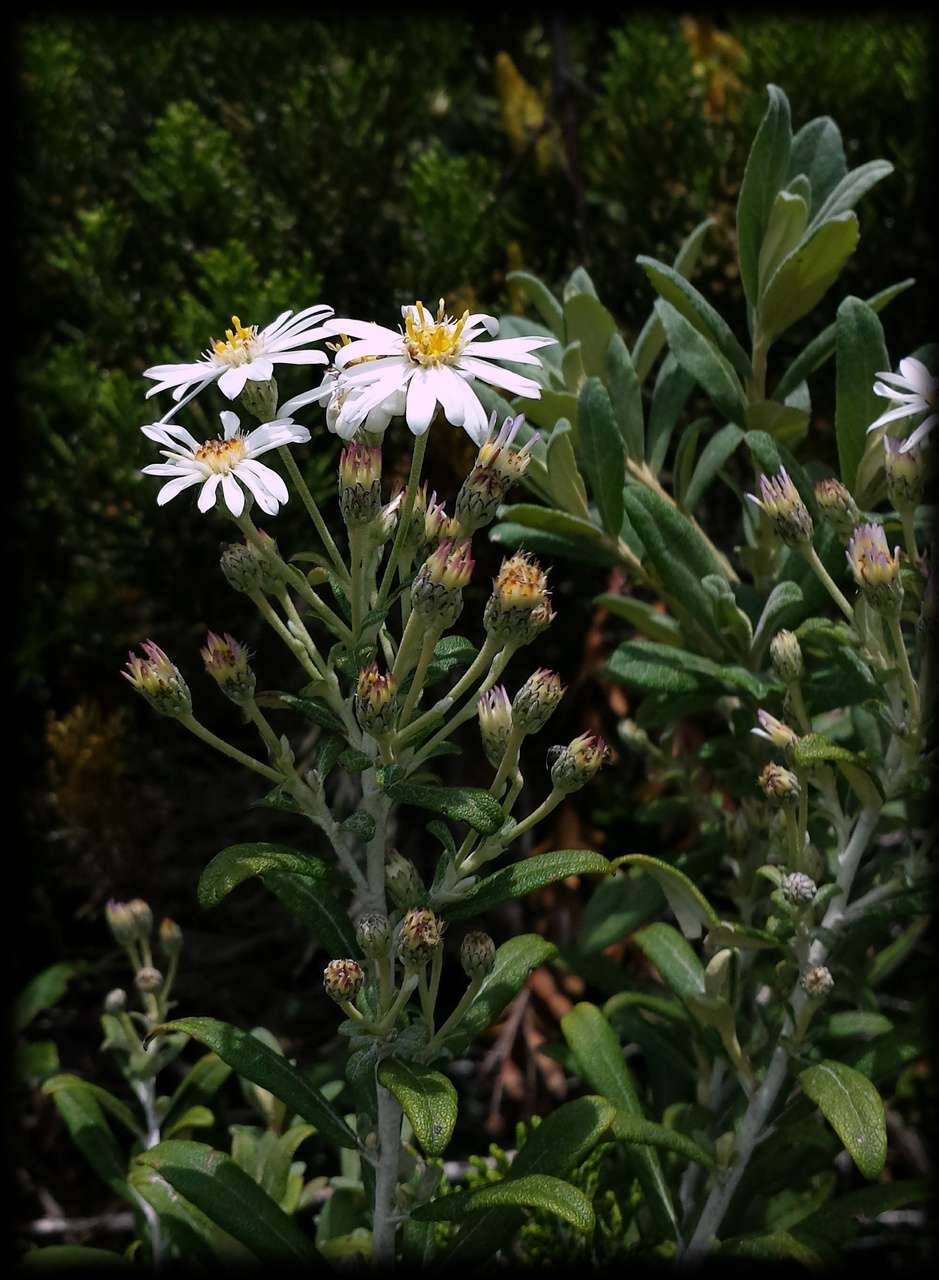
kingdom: Plantae
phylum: Tracheophyta
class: Magnoliopsida
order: Asterales
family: Asteraceae
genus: Olearia
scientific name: Olearia phlogopappa
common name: Alpine daisybush
